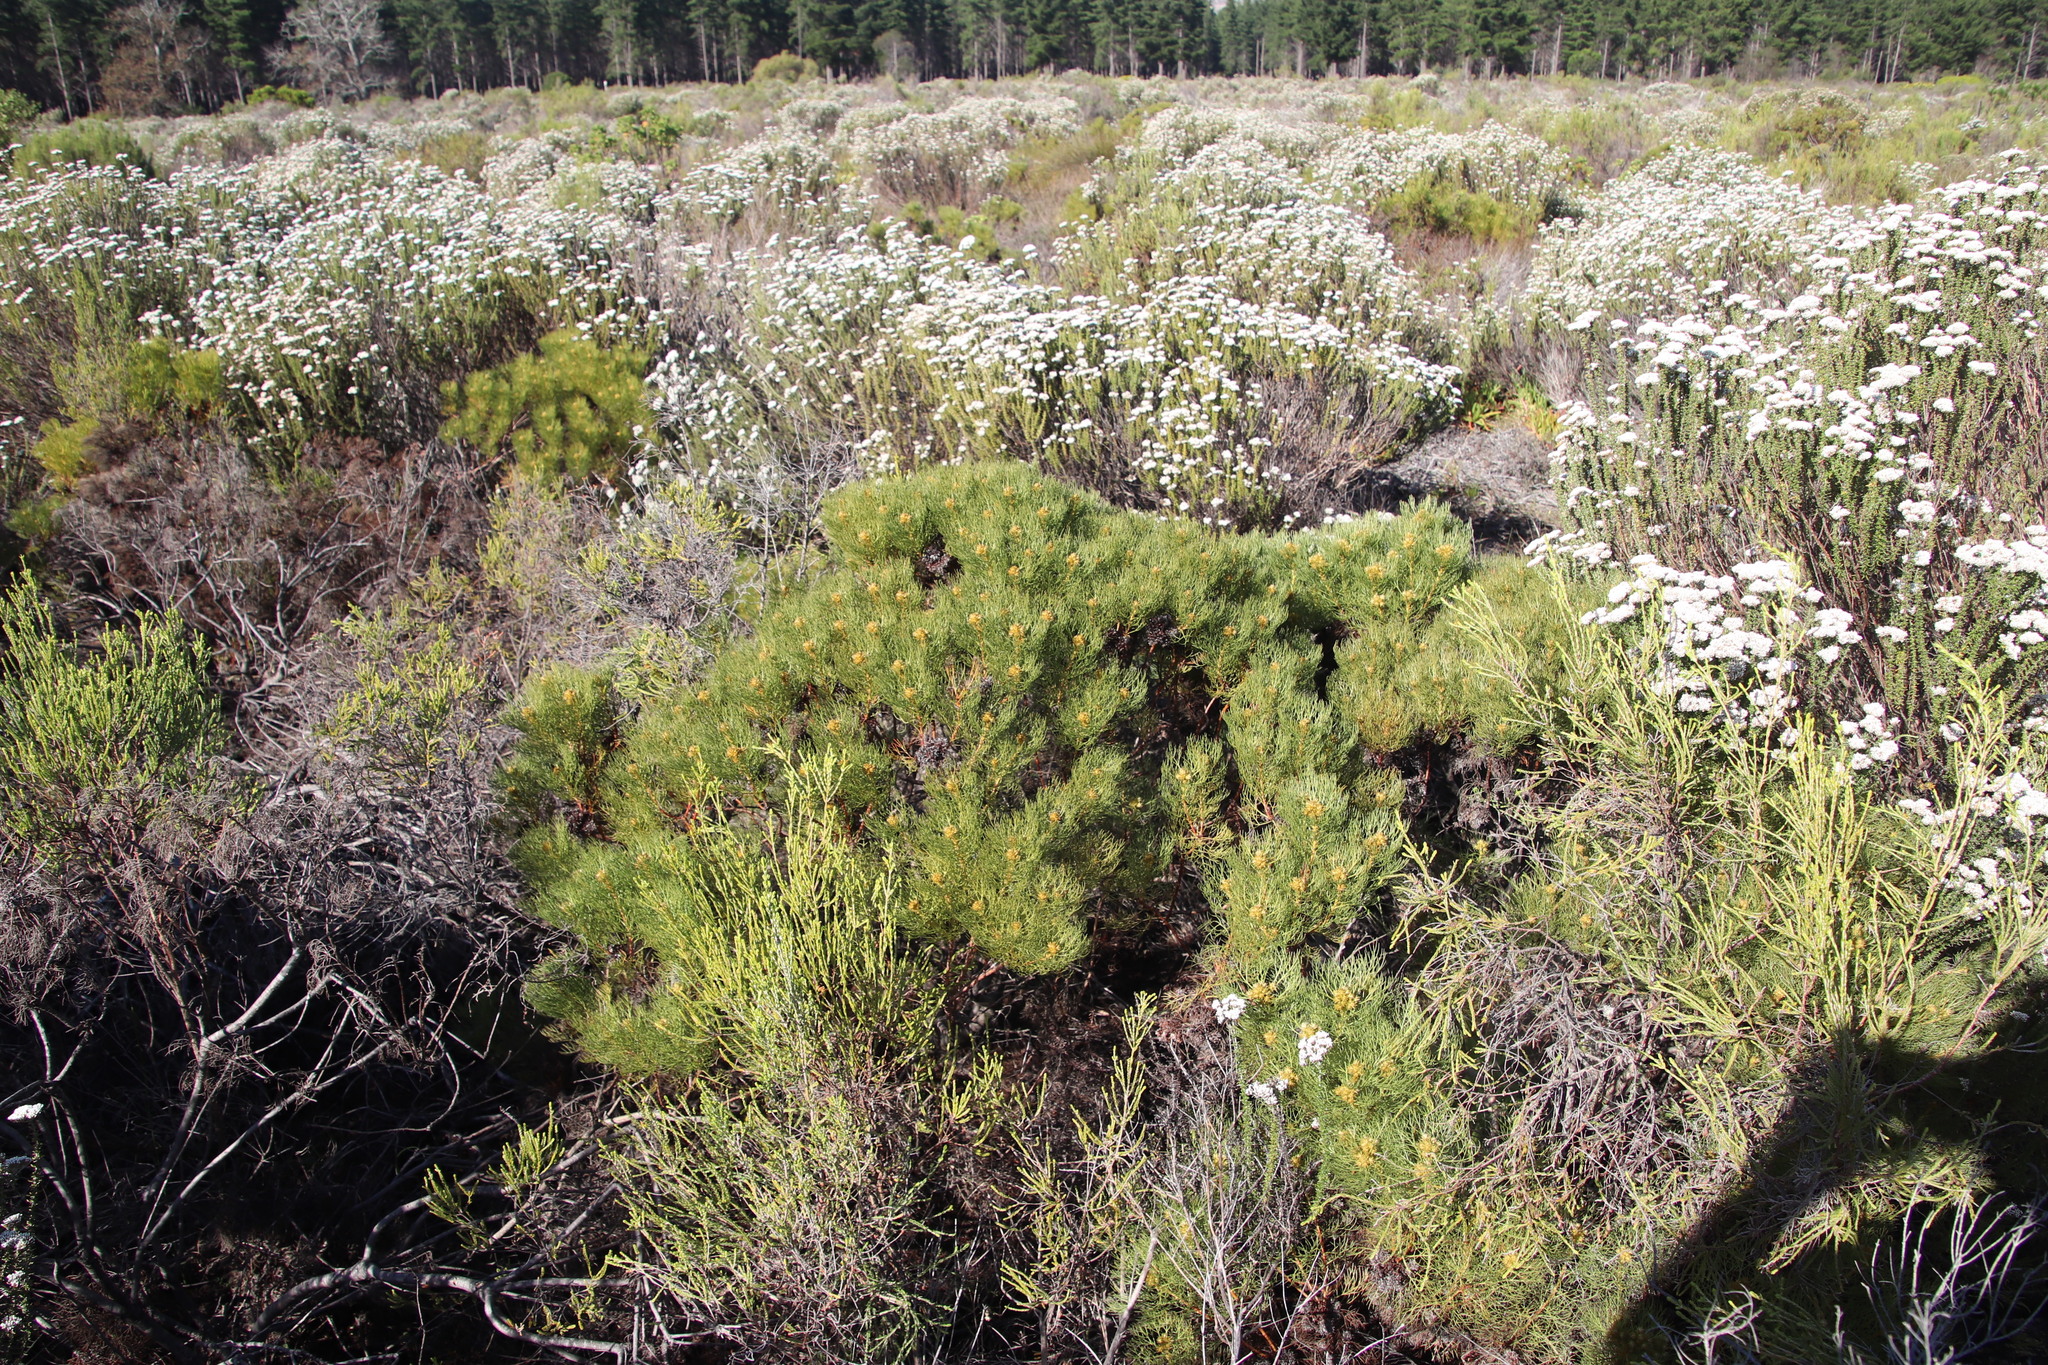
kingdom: Plantae
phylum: Tracheophyta
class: Magnoliopsida
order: Proteales
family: Proteaceae
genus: Serruria
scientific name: Serruria glomerata
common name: Cluster spiderhead
